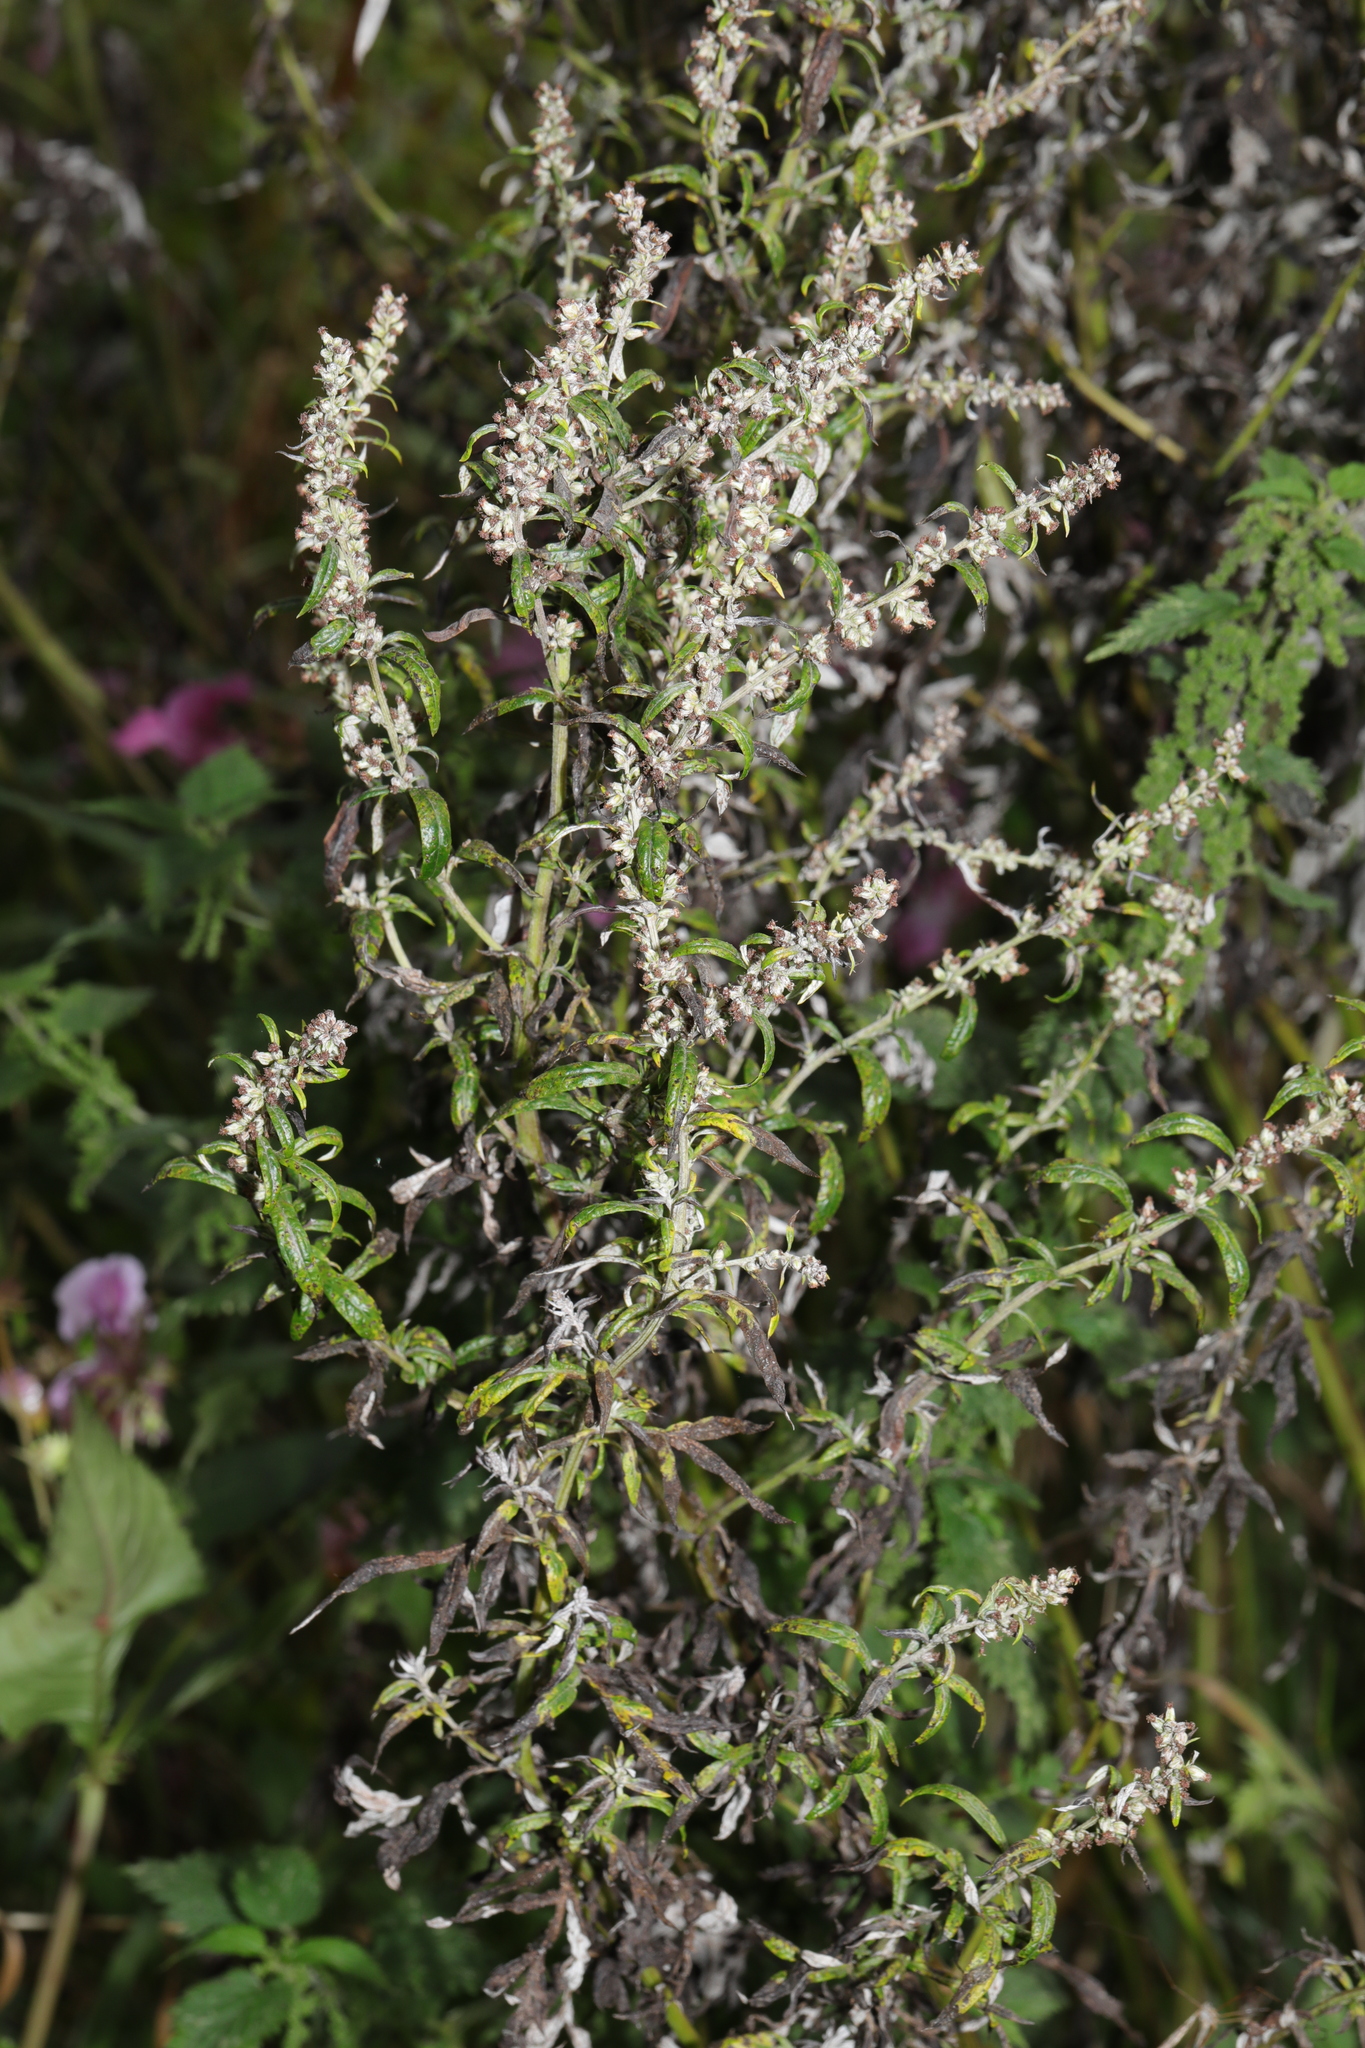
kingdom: Plantae
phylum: Tracheophyta
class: Magnoliopsida
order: Asterales
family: Asteraceae
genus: Artemisia
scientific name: Artemisia vulgaris
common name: Mugwort
